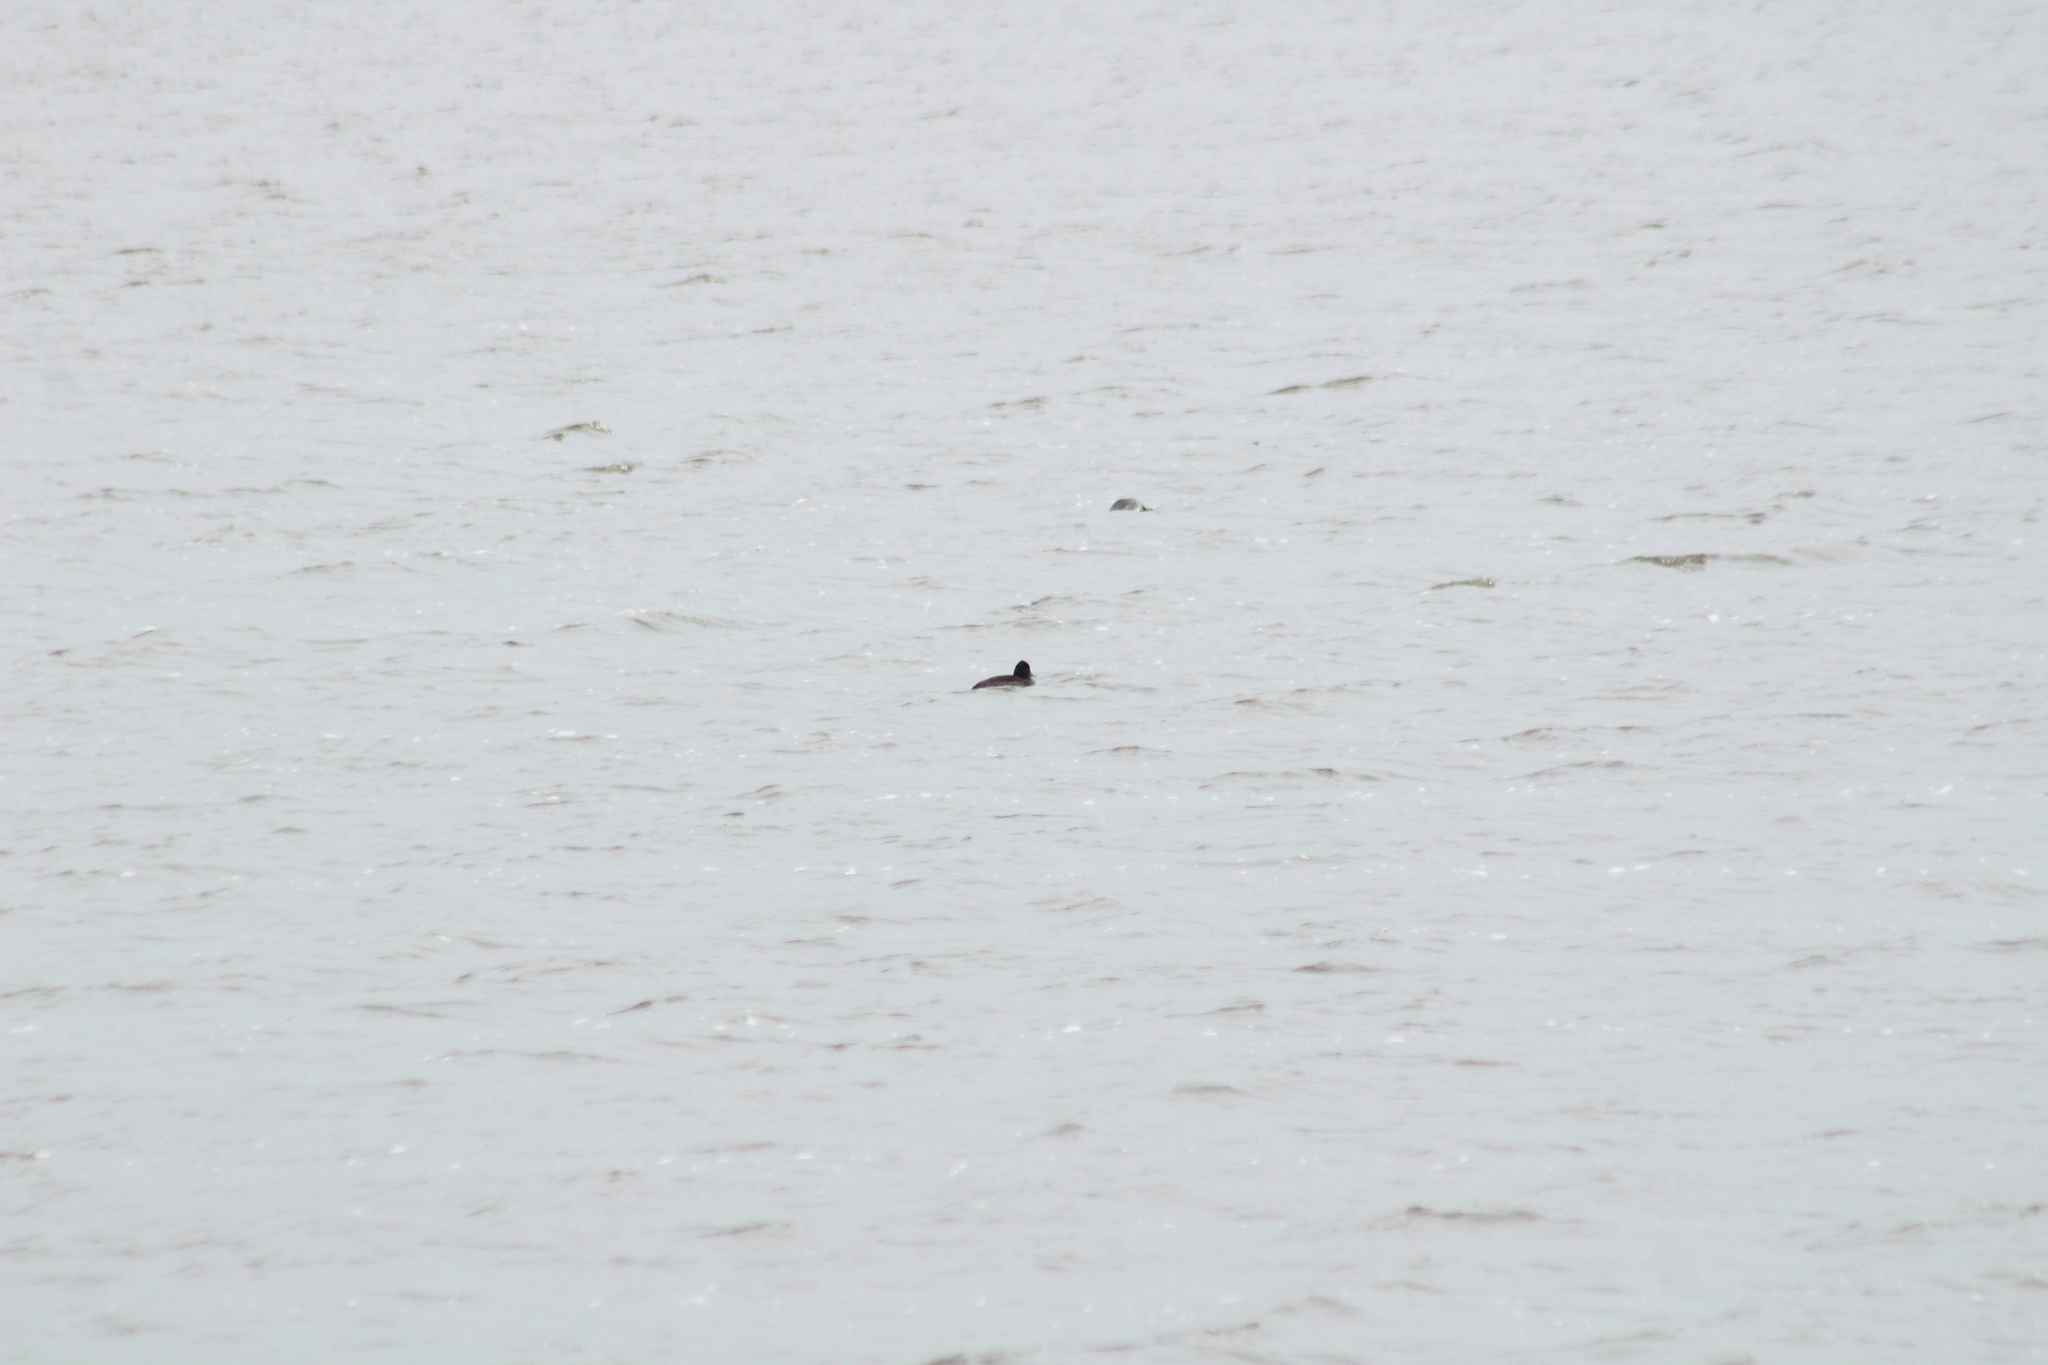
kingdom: Animalia
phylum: Chordata
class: Aves
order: Anseriformes
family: Anatidae
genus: Aythya
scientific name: Aythya fuligula
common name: Tufted duck
